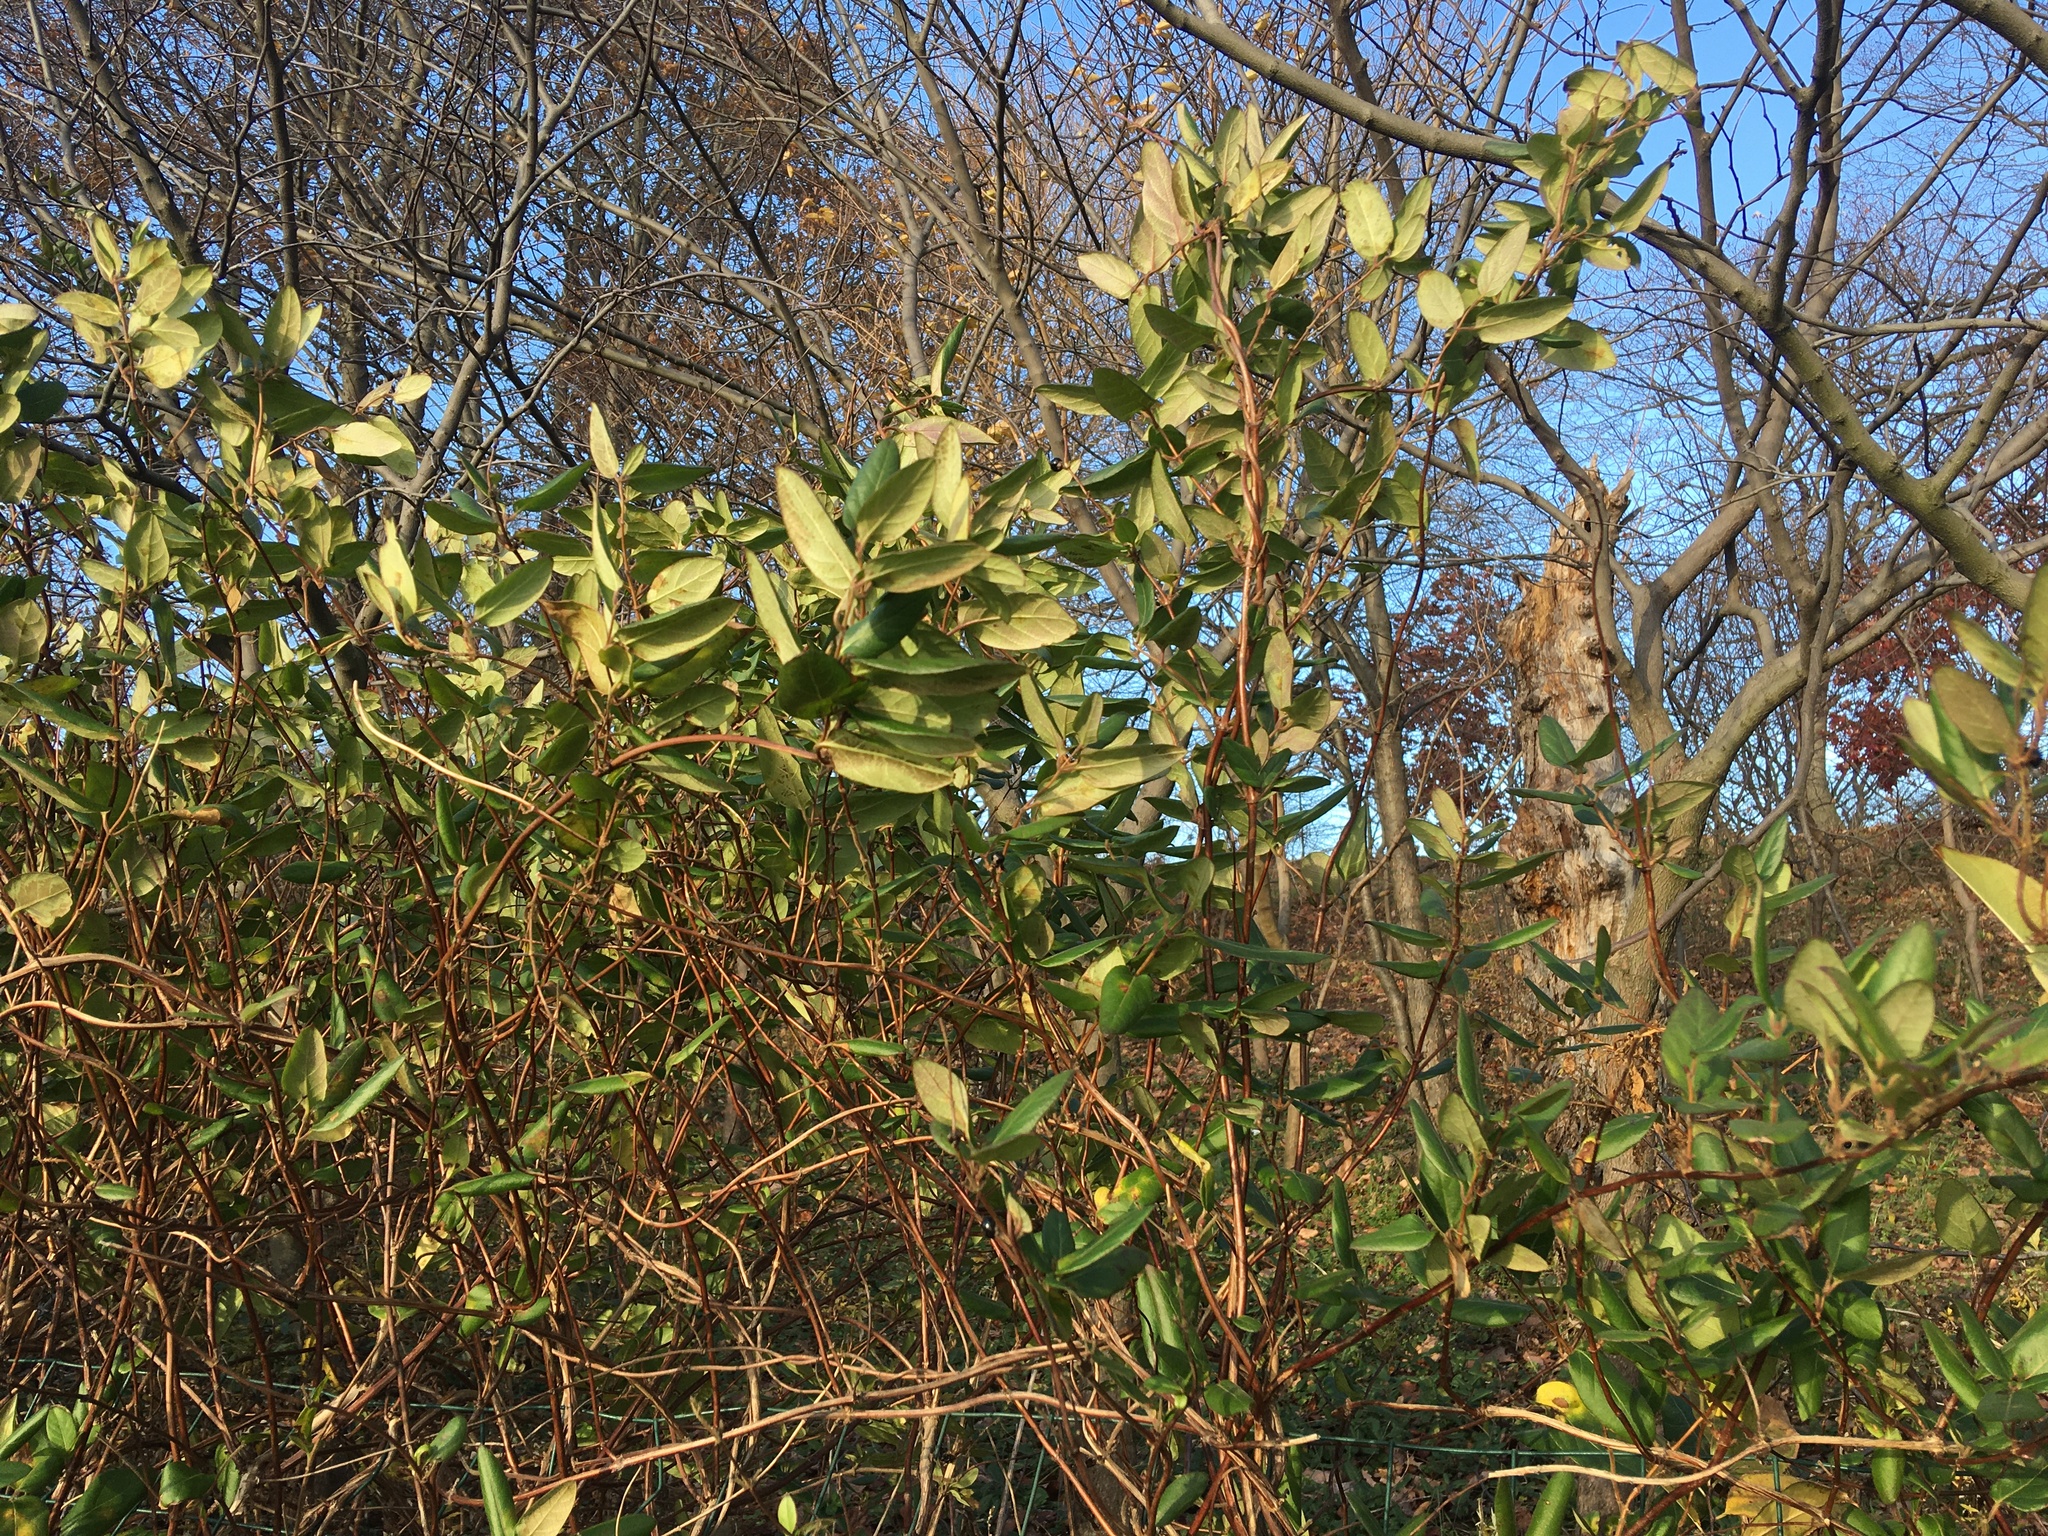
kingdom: Plantae
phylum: Tracheophyta
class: Magnoliopsida
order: Dipsacales
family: Caprifoliaceae
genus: Lonicera
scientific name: Lonicera japonica
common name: Japanese honeysuckle
